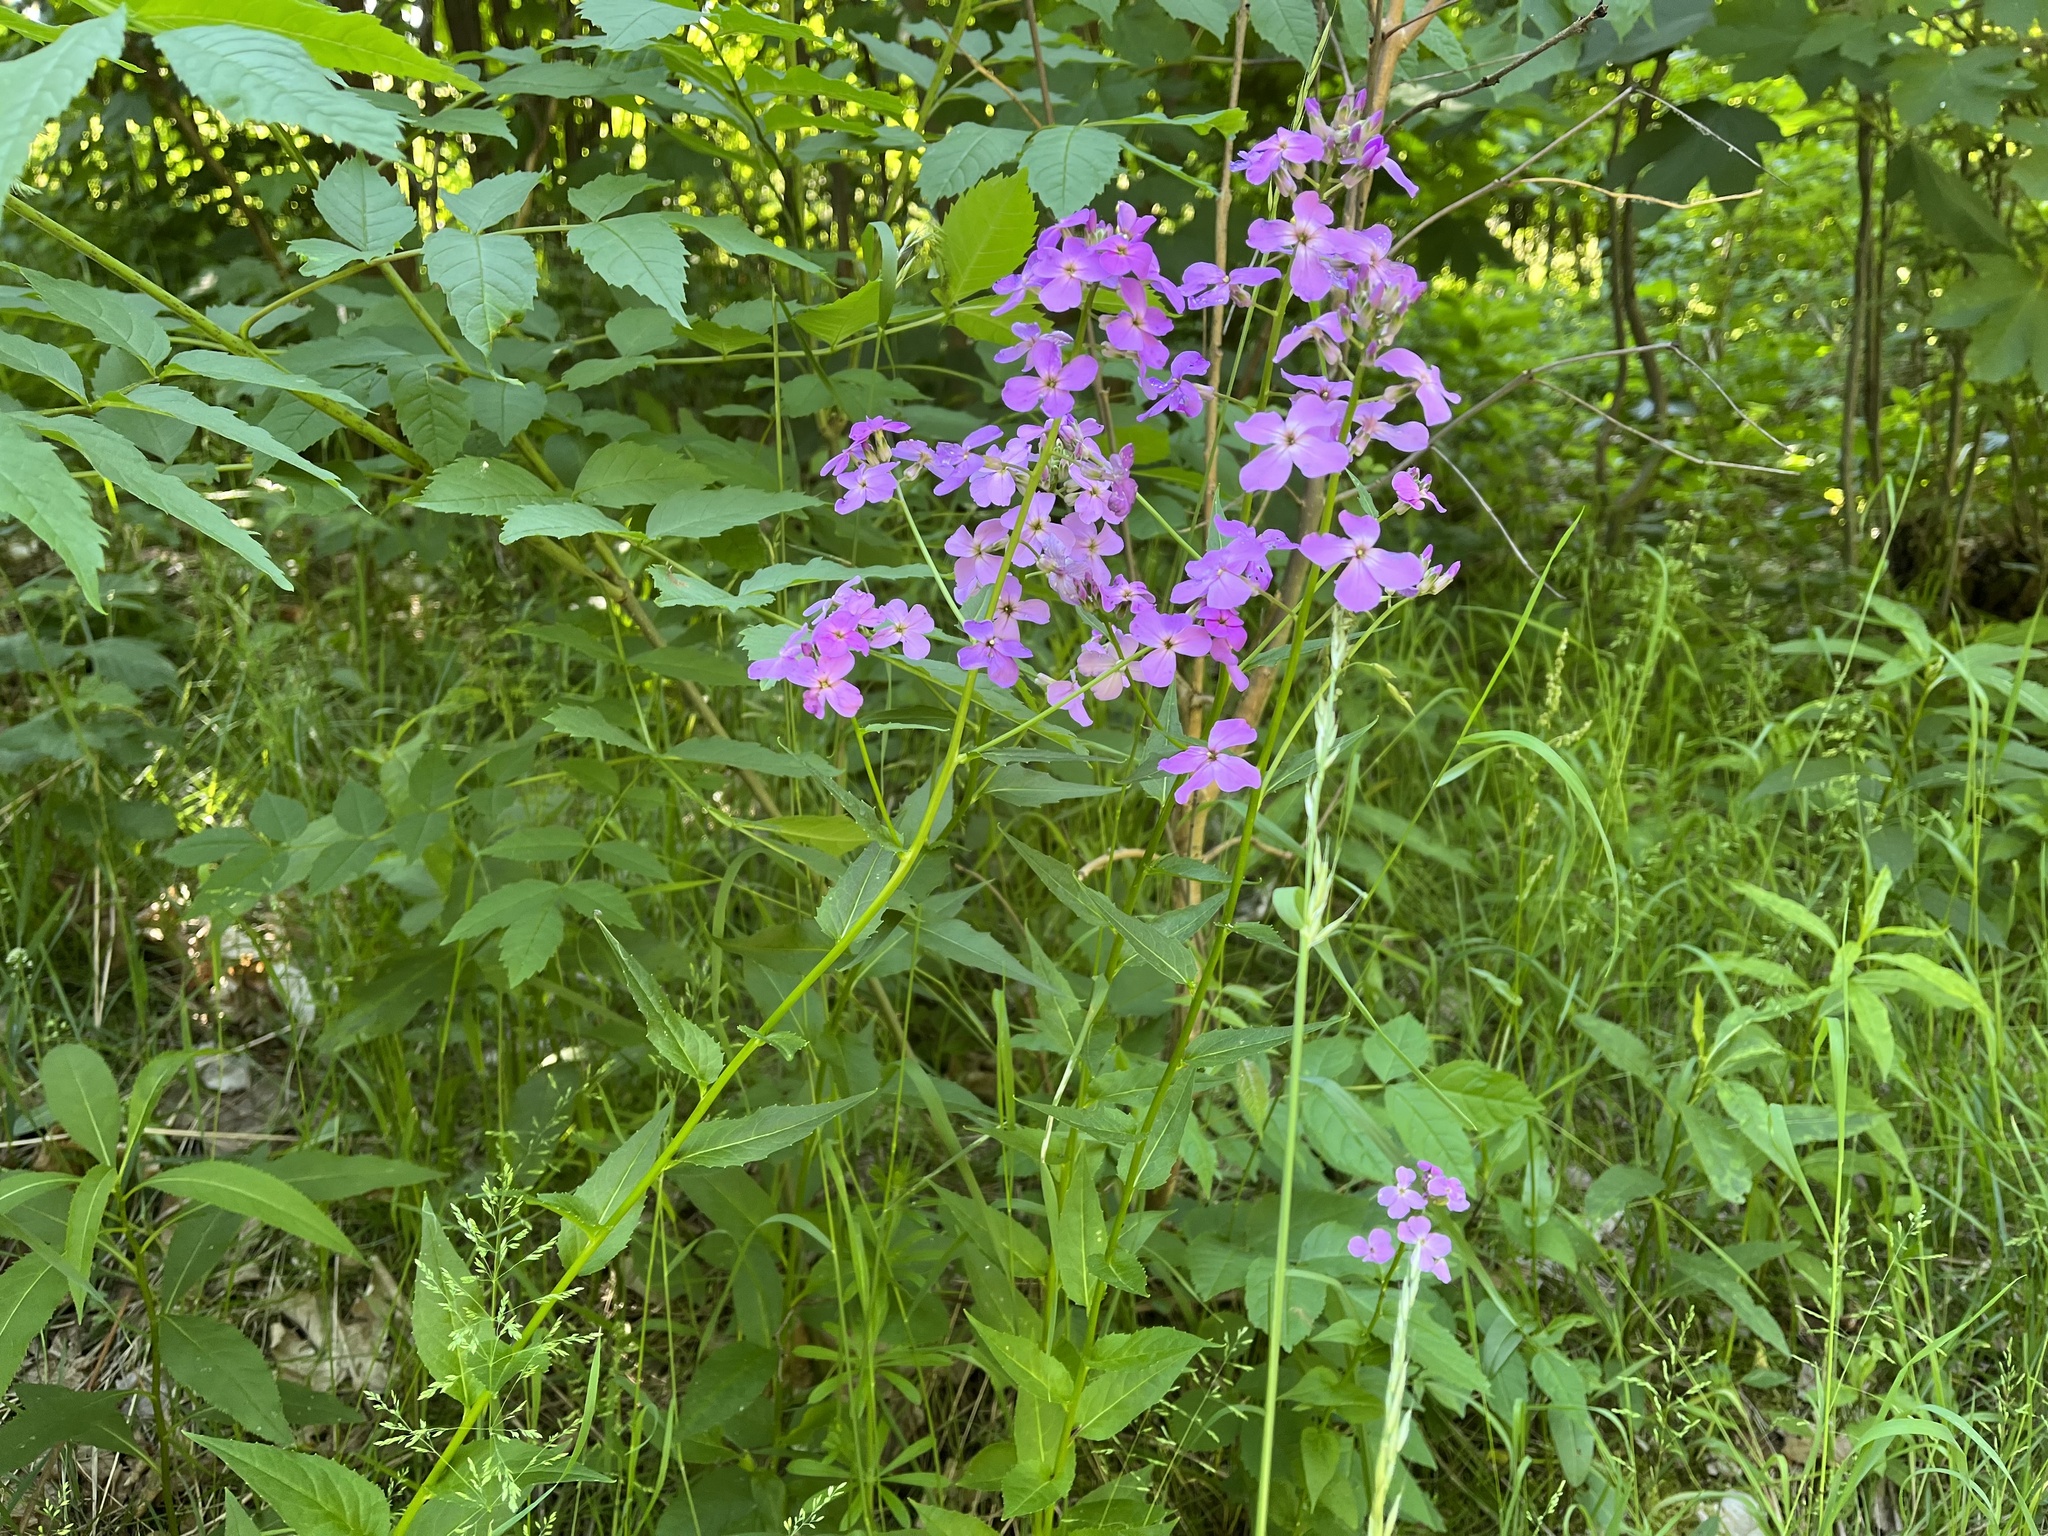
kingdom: Plantae
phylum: Tracheophyta
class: Magnoliopsida
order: Brassicales
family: Brassicaceae
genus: Hesperis
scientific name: Hesperis matronalis
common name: Dame's-violet
